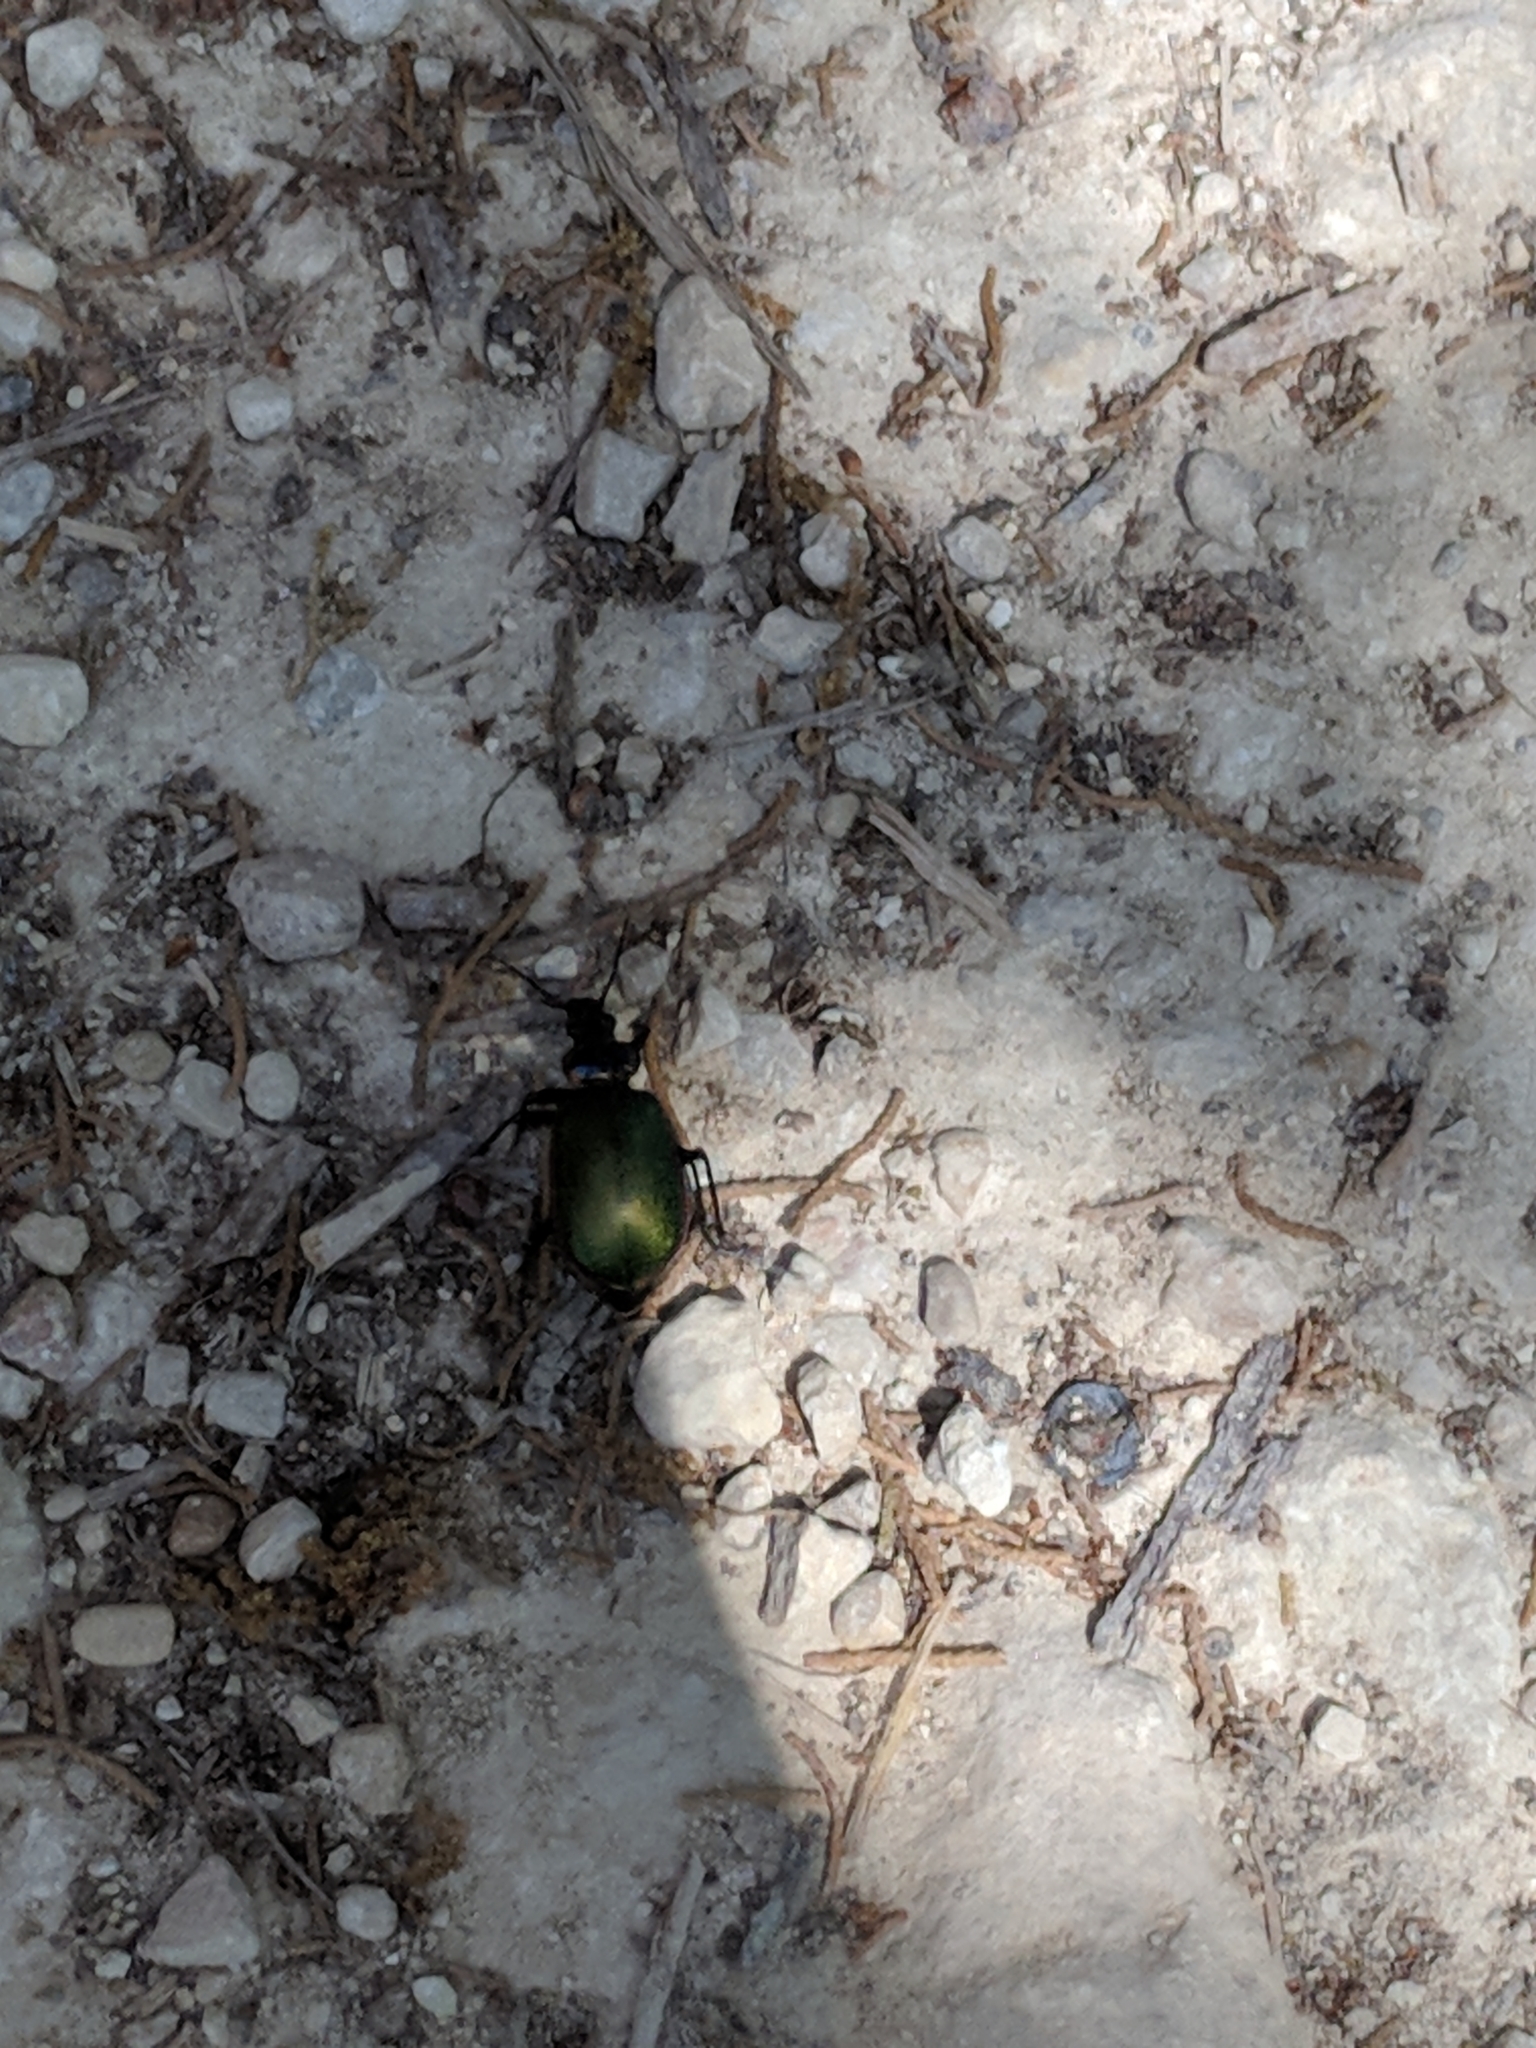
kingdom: Animalia
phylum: Arthropoda
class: Insecta
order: Coleoptera
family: Carabidae
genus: Calosoma
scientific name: Calosoma scrutator
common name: Fiery searcher beetle
